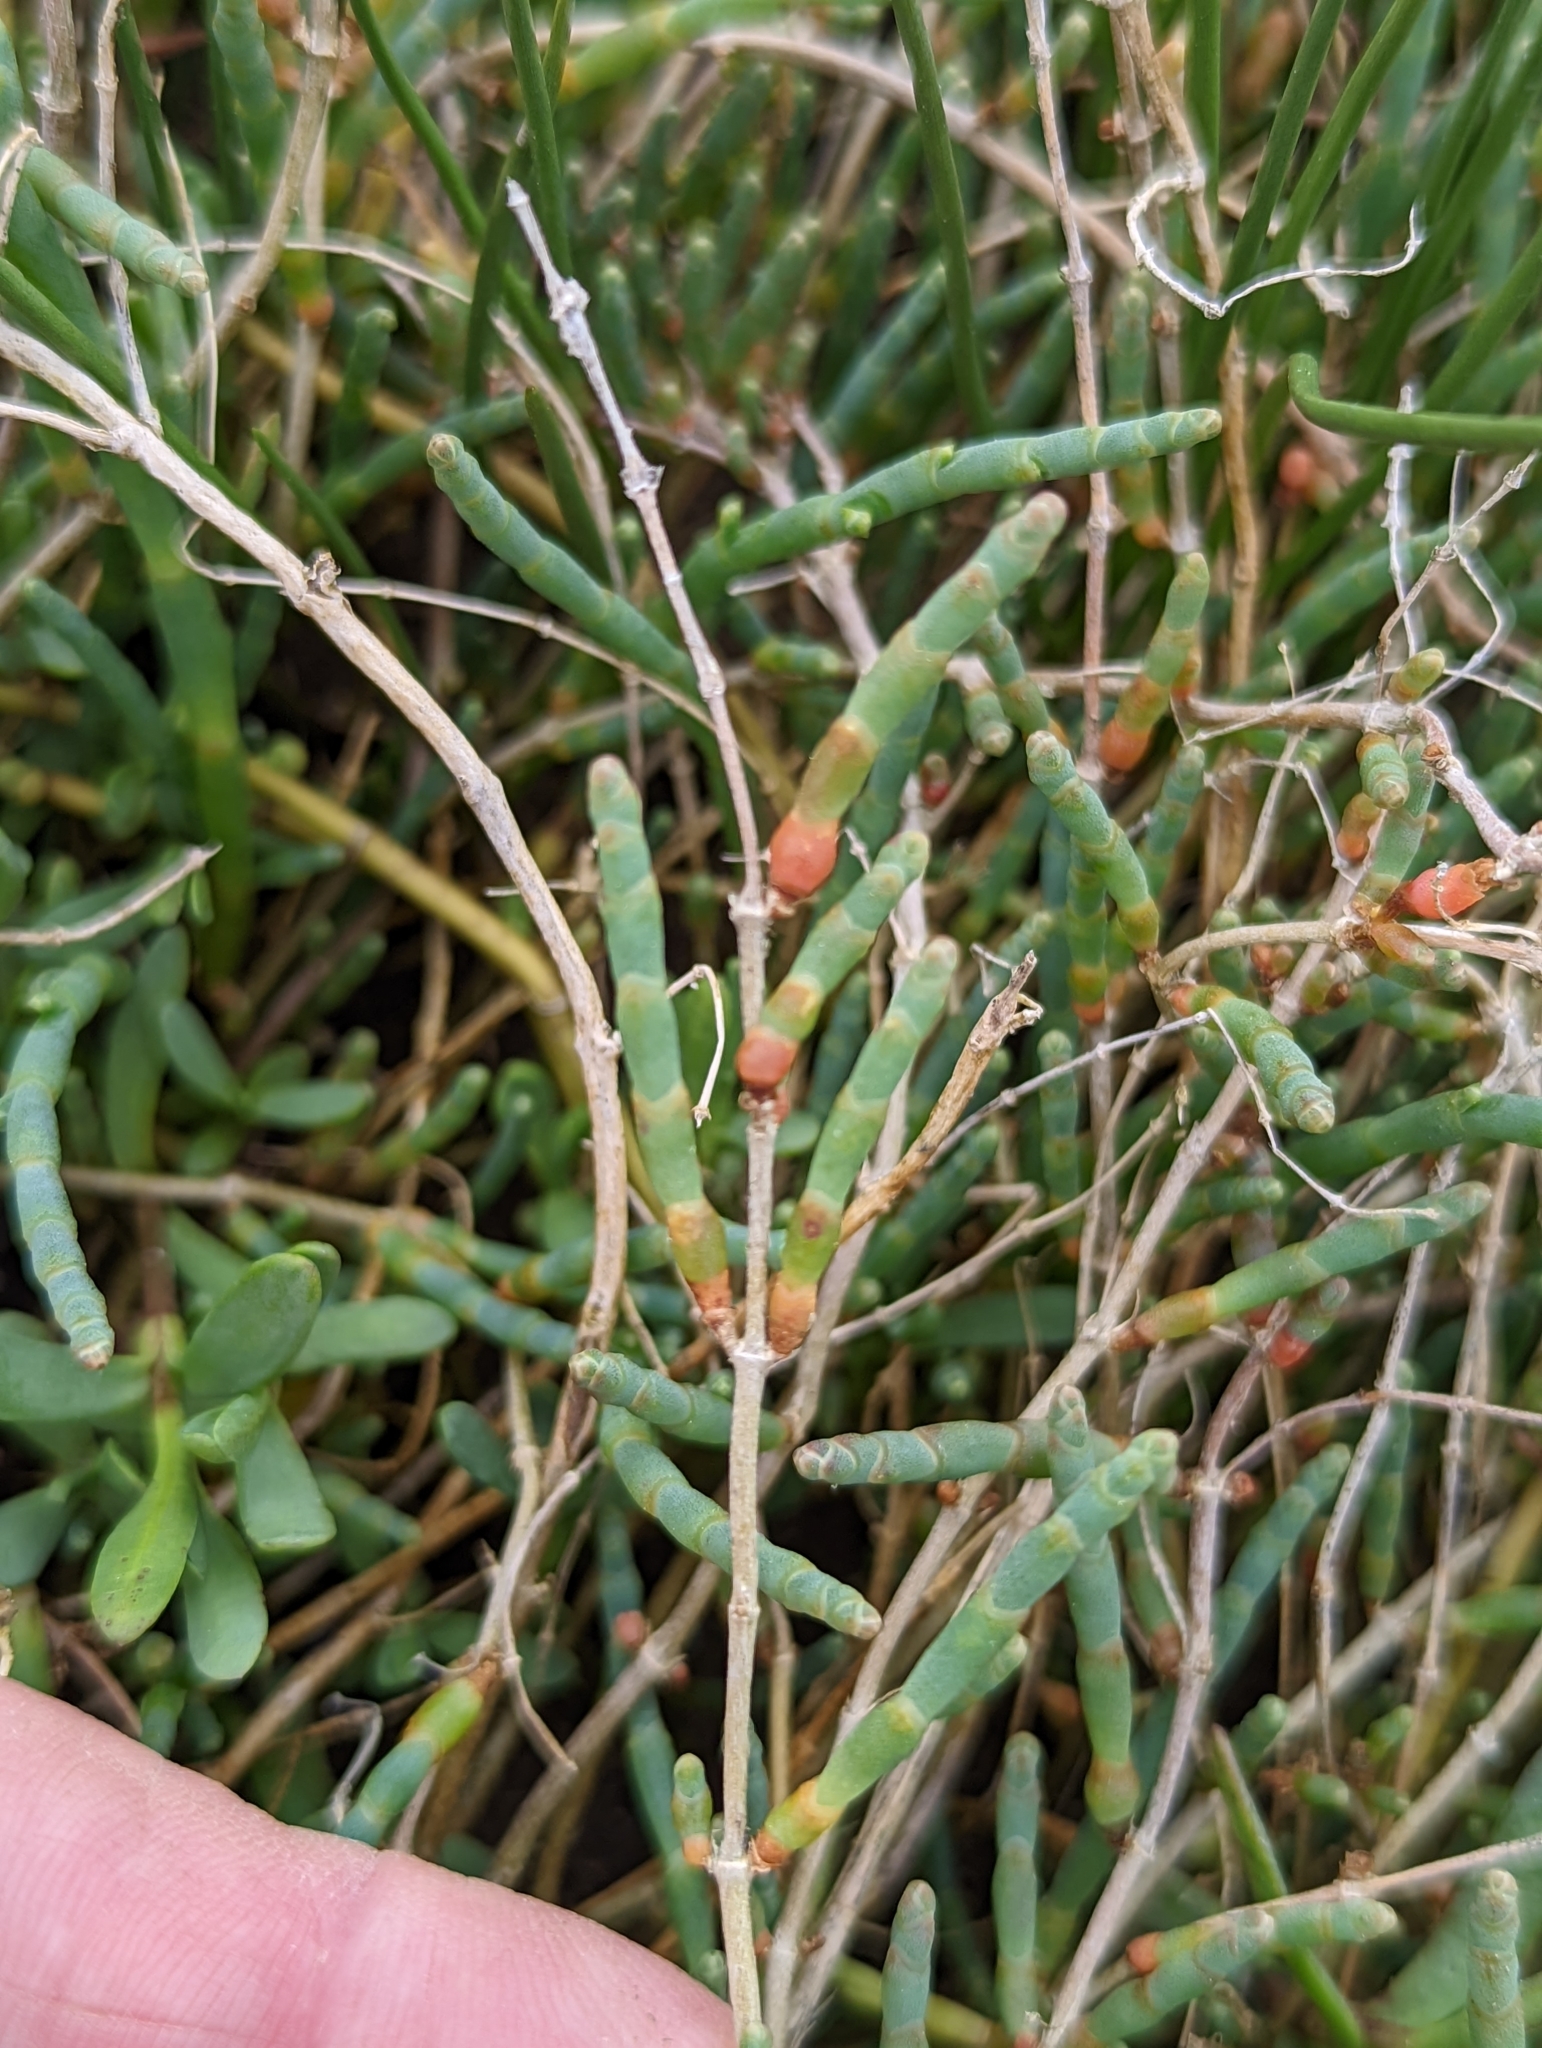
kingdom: Plantae
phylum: Tracheophyta
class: Magnoliopsida
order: Caryophyllales
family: Amaranthaceae
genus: Salicornia
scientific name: Salicornia pacifica
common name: Pacific glasswort
